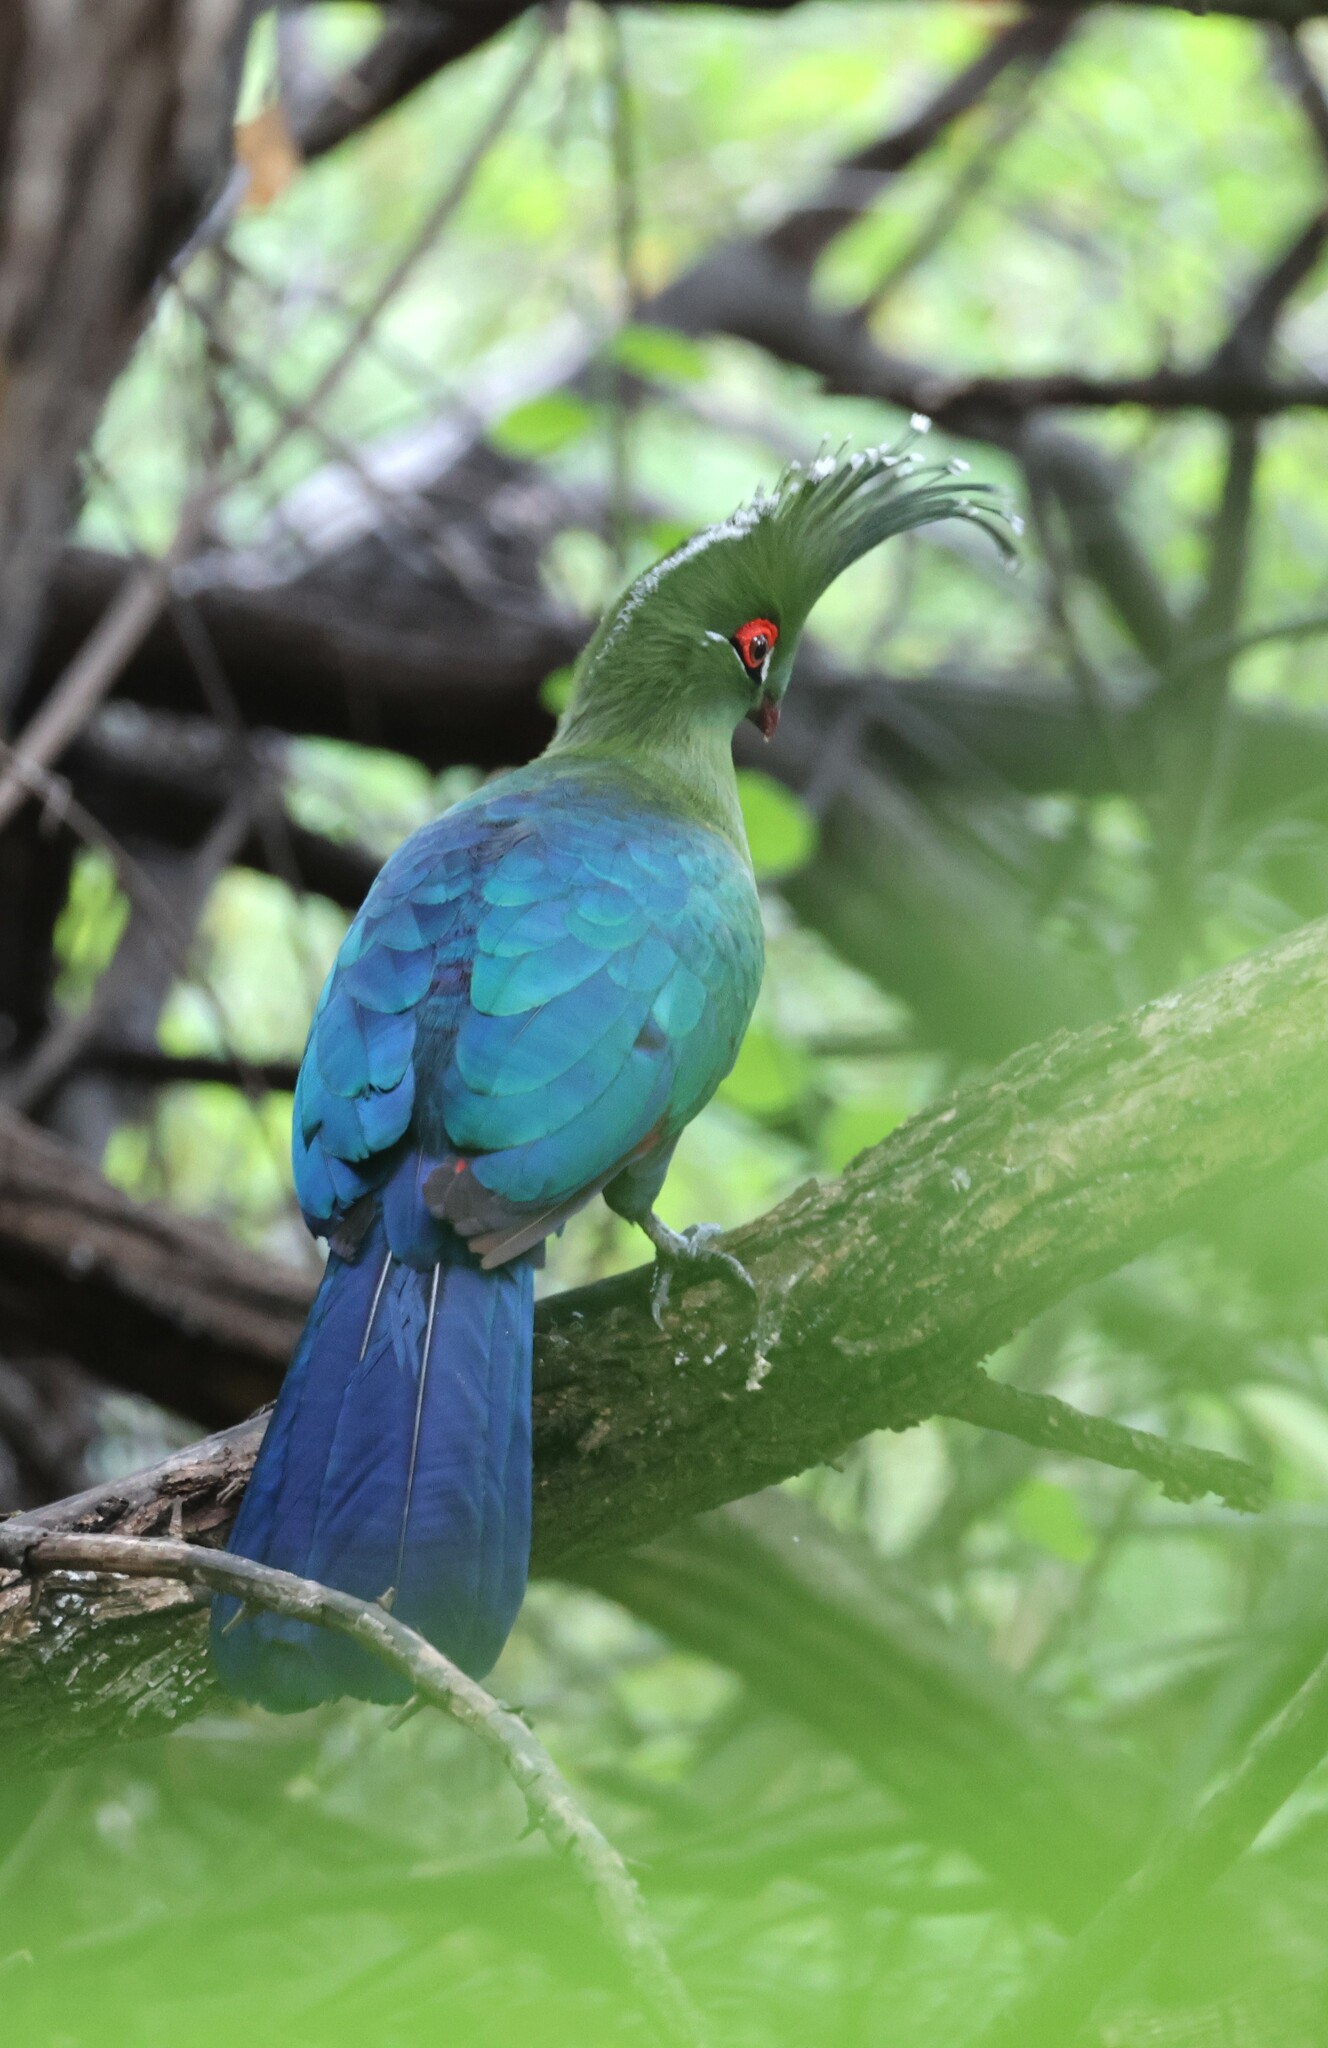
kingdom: Animalia
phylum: Chordata
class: Aves
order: Musophagiformes
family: Musophagidae
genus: Tauraco
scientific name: Tauraco schalowi
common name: Schalow's turaco
